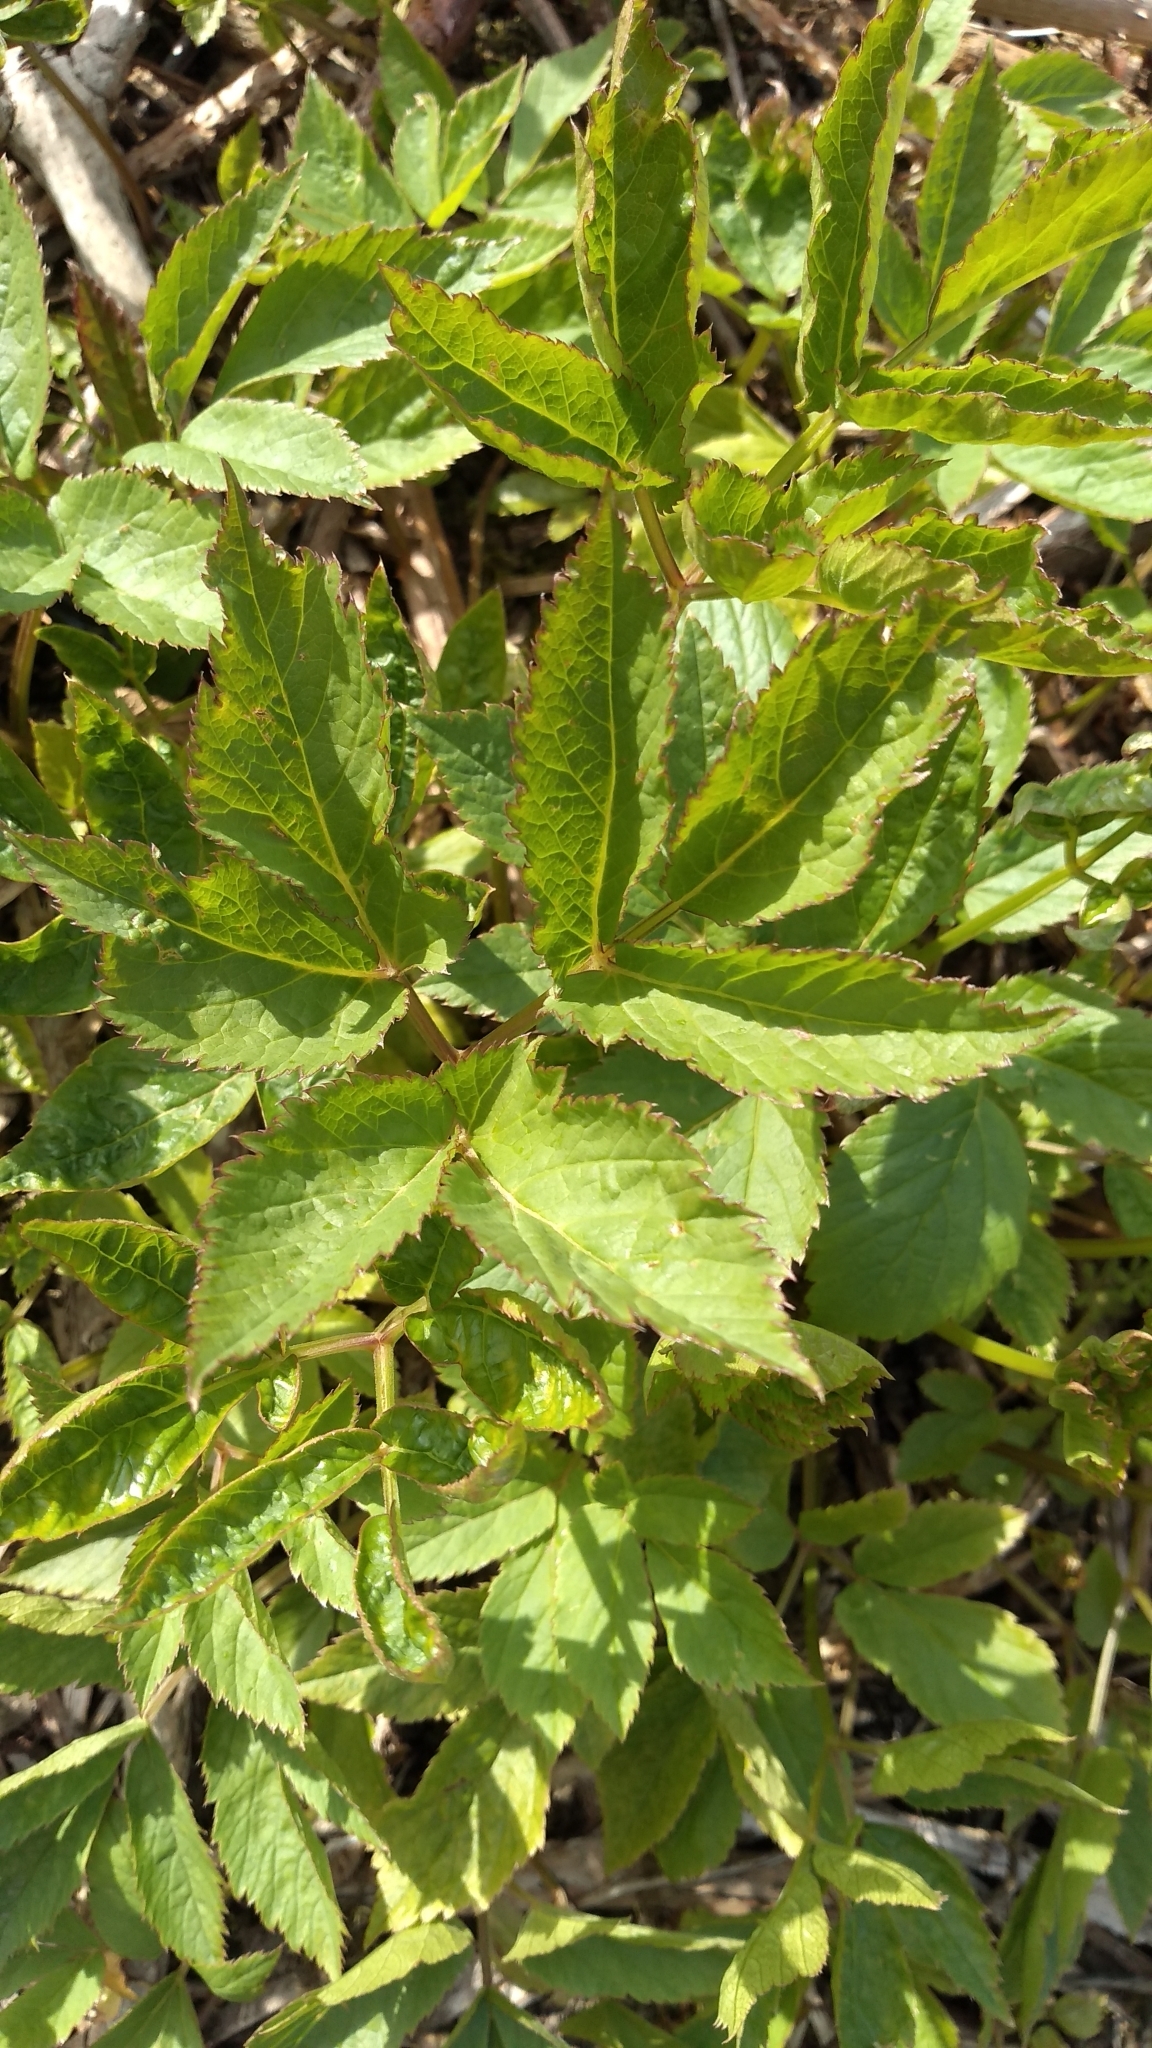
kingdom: Plantae
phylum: Tracheophyta
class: Magnoliopsida
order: Apiales
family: Apiaceae
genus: Aegopodium
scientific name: Aegopodium podagraria
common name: Ground-elder
